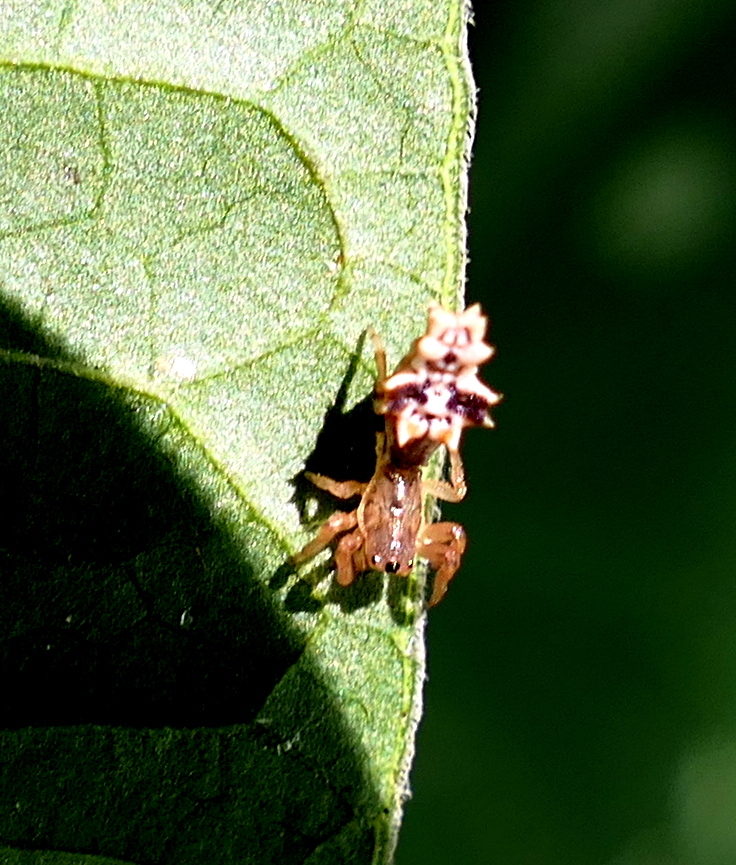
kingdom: Animalia
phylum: Arthropoda
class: Arachnida
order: Araneae
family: Araneidae
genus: Micrathena
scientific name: Micrathena horrida
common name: Orb weavers
